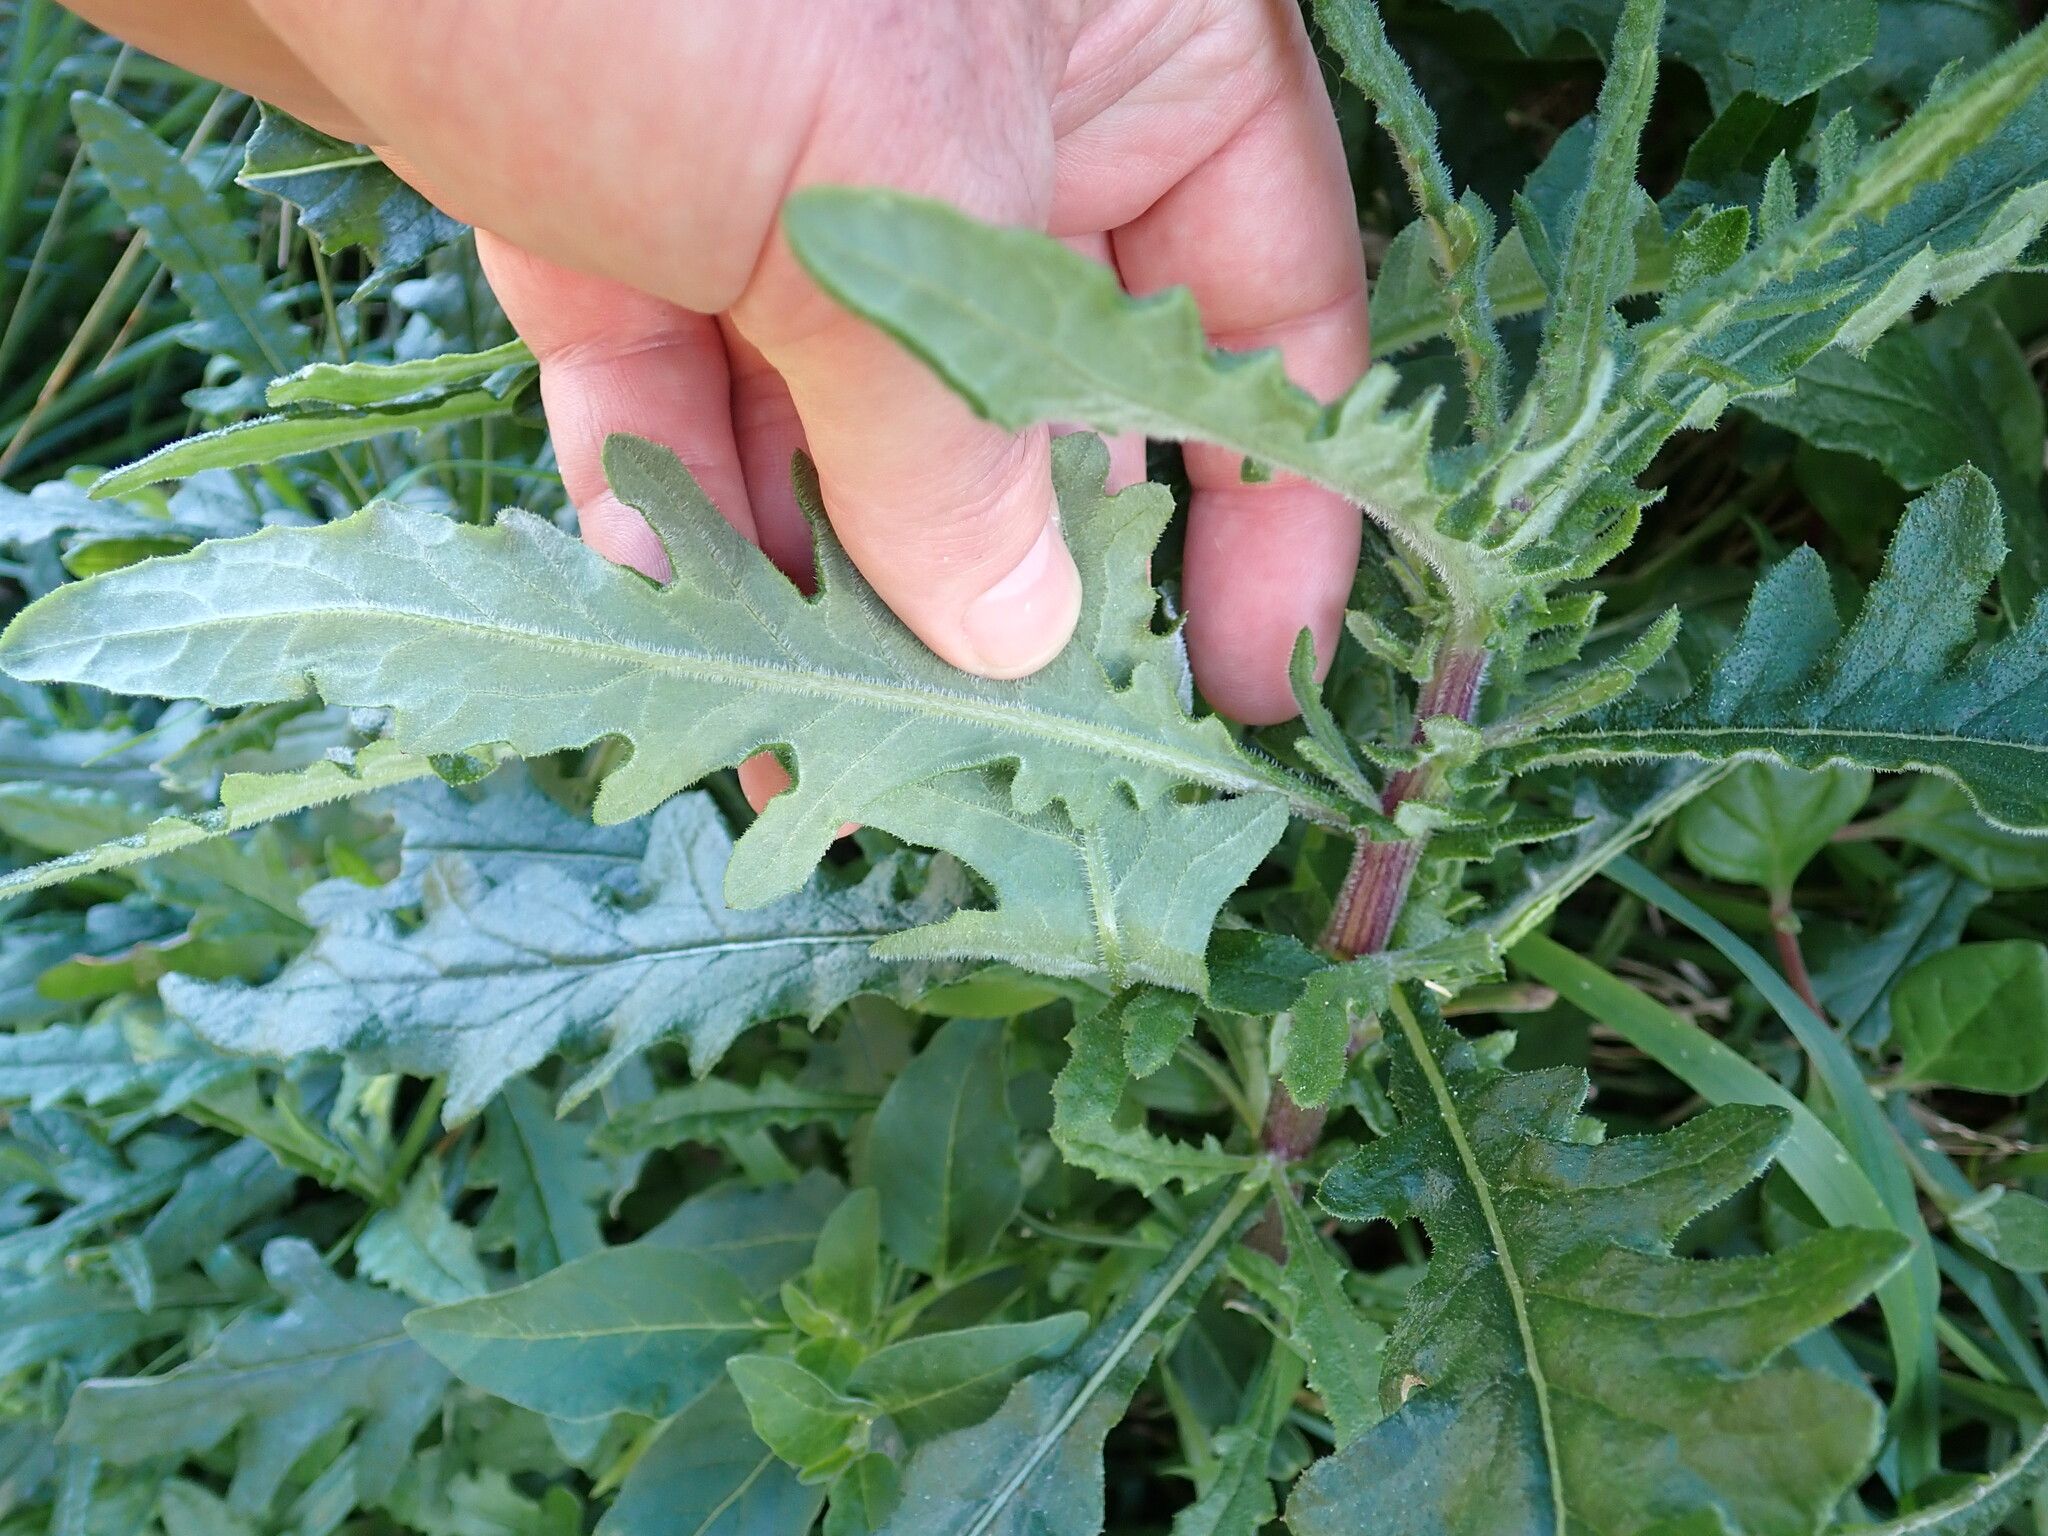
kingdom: Plantae
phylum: Tracheophyta
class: Magnoliopsida
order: Asterales
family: Asteraceae
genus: Senecio
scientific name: Senecio glomeratus
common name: Cutleaf burnweed
